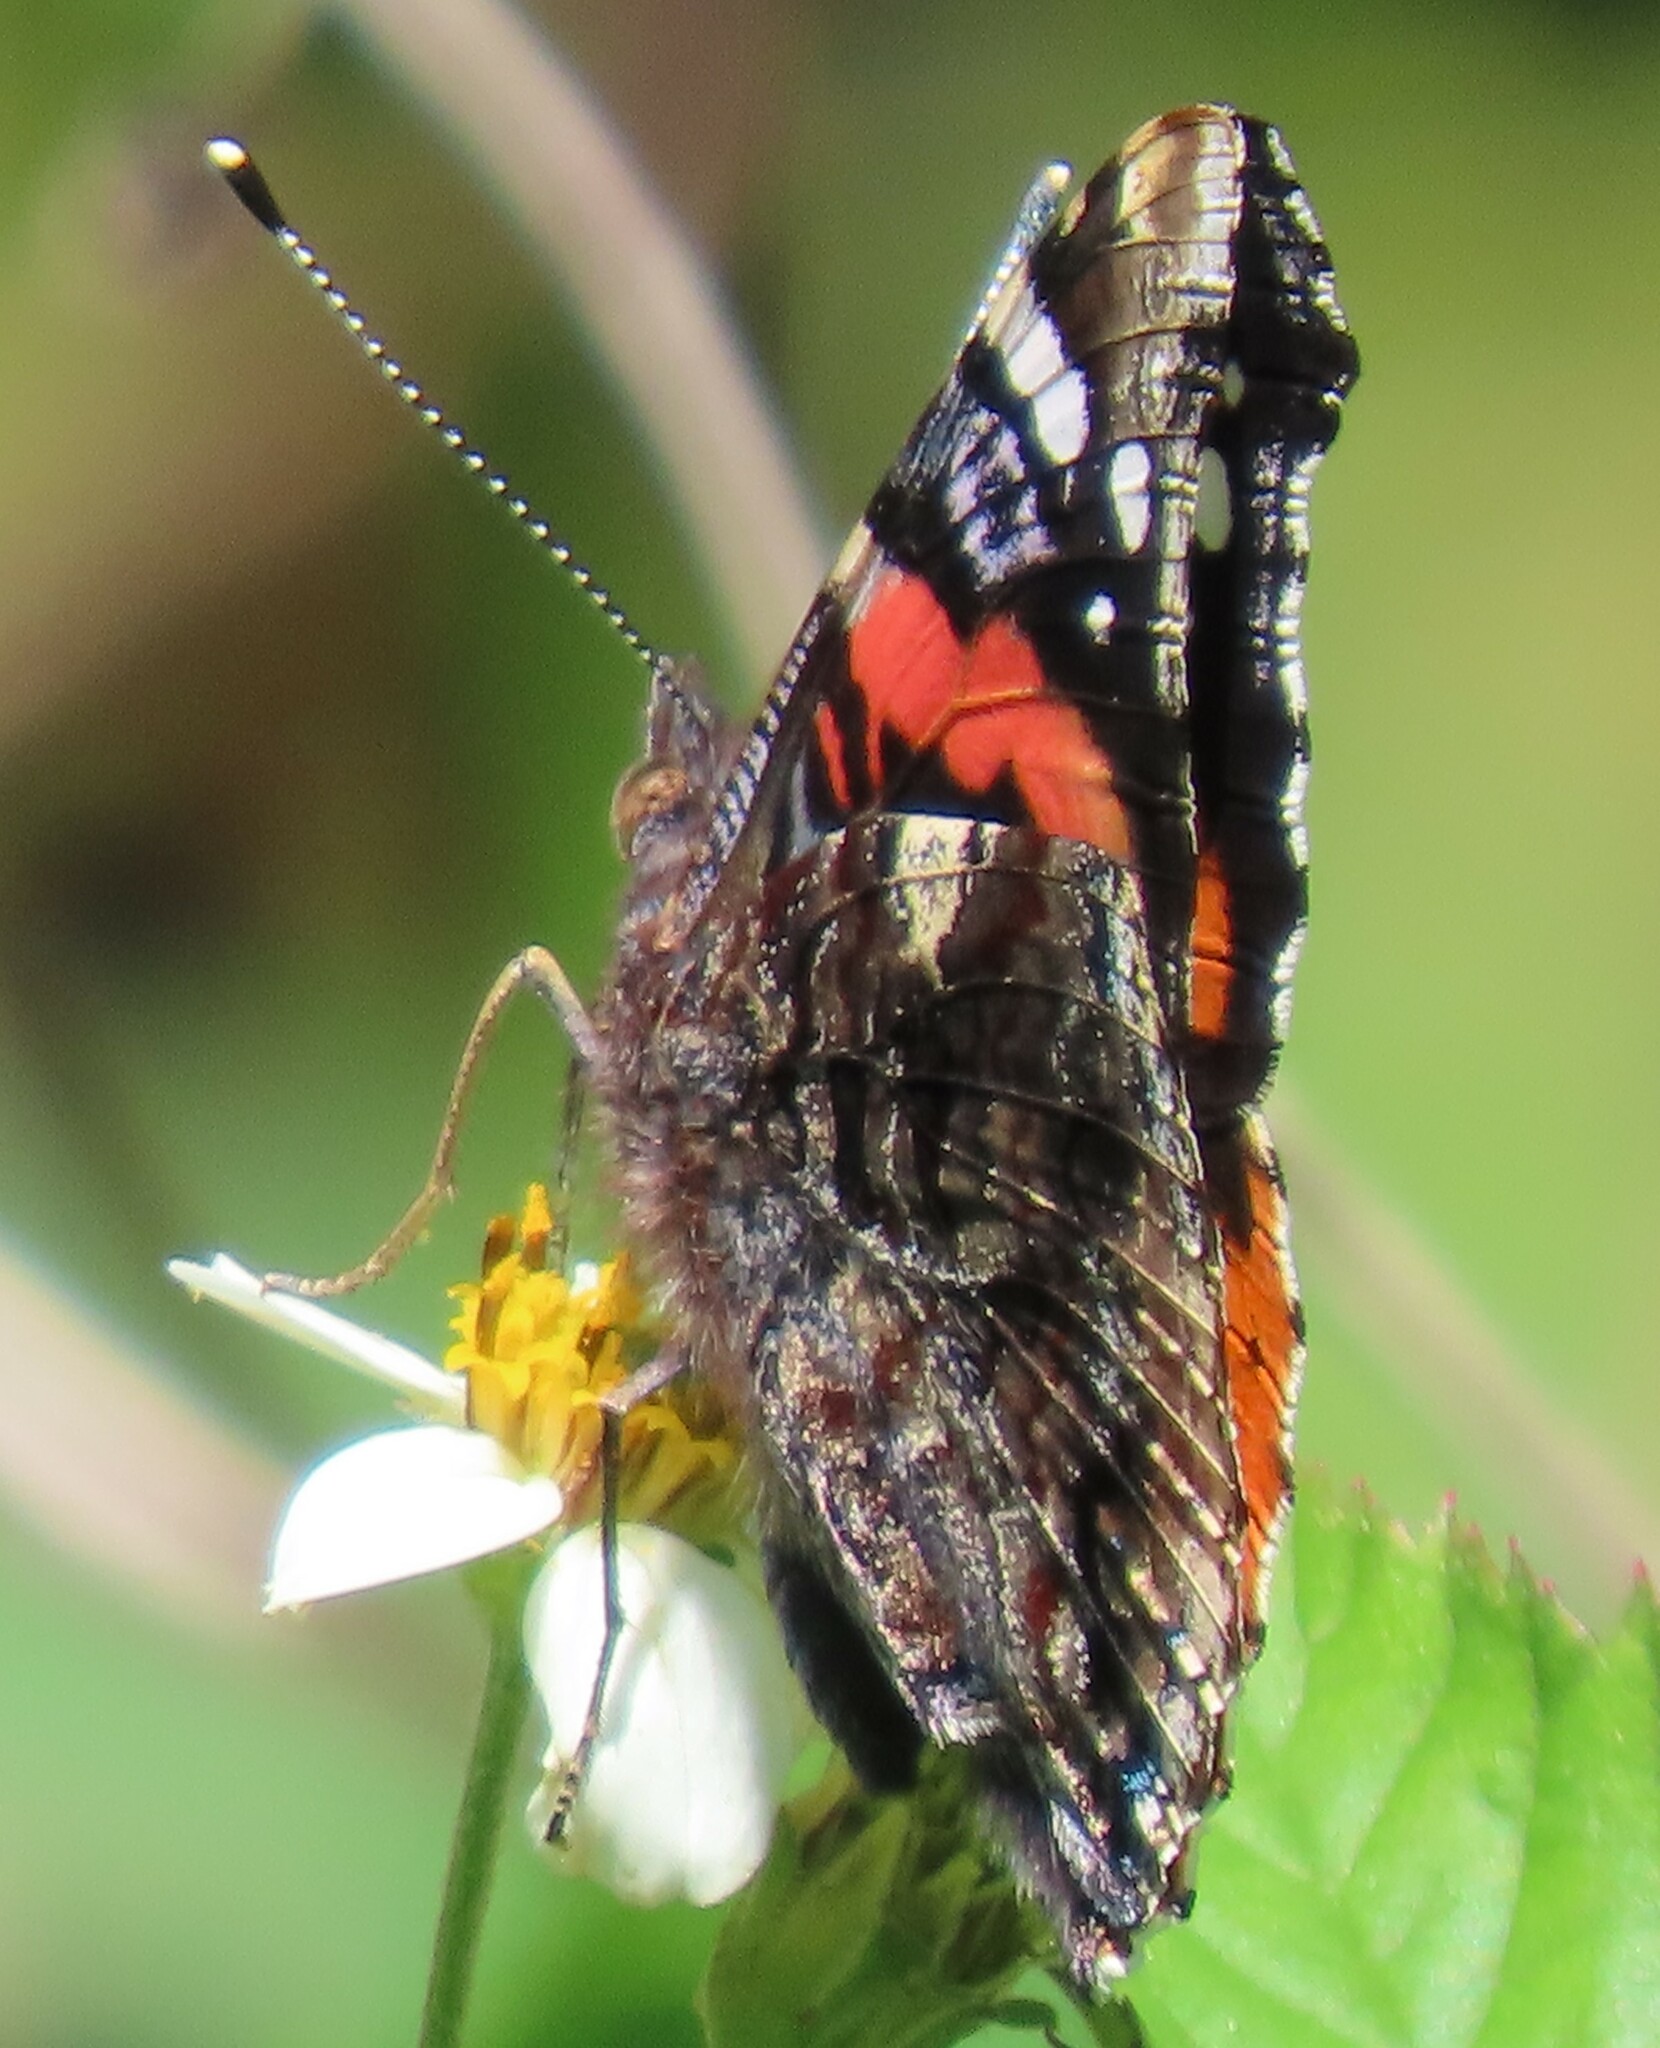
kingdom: Animalia
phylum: Arthropoda
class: Insecta
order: Lepidoptera
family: Nymphalidae
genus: Vanessa
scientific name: Vanessa atalanta
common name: Red admiral
